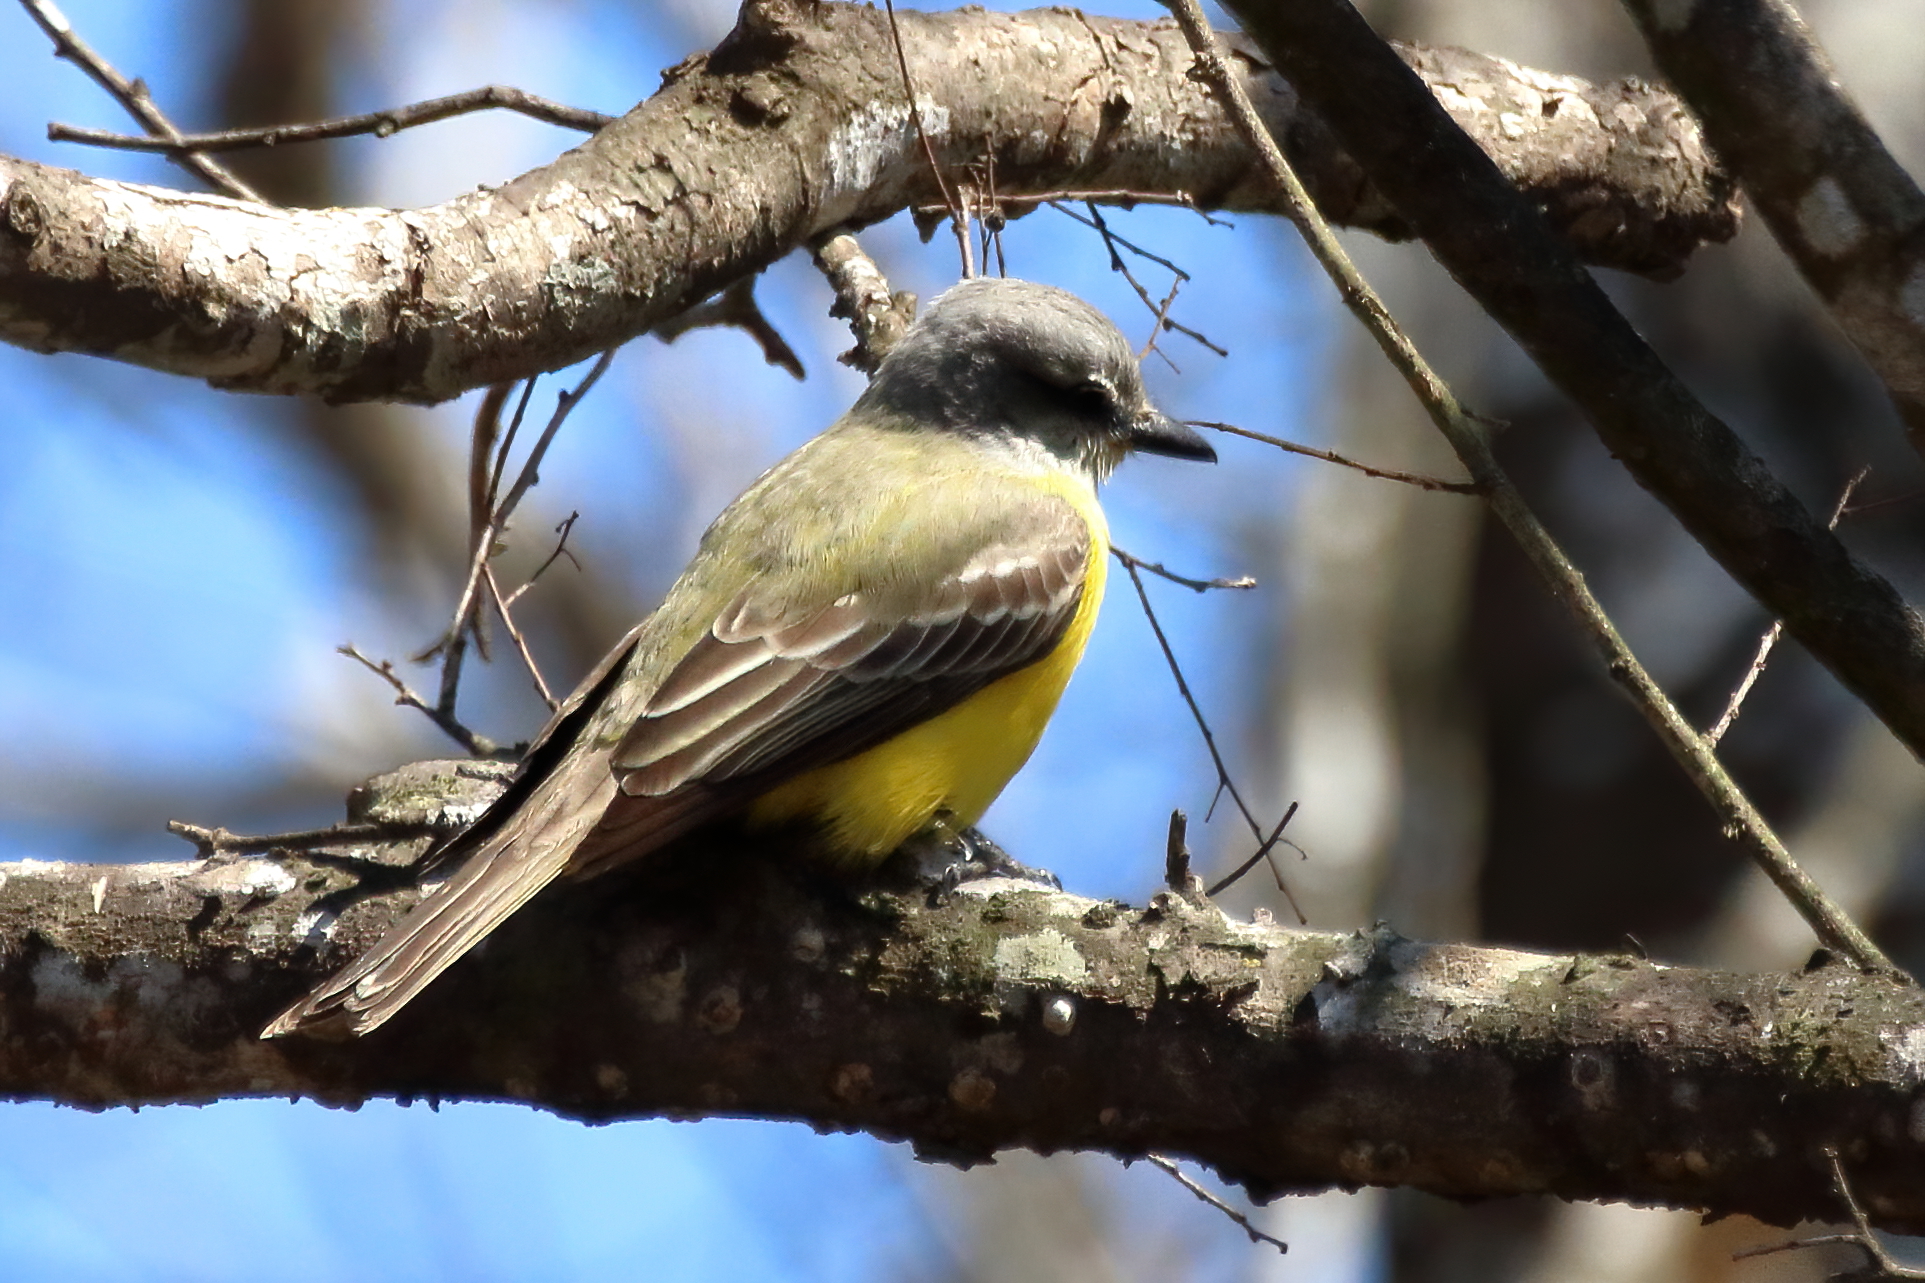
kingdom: Animalia
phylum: Chordata
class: Aves
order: Passeriformes
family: Tyrannidae
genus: Tyrannus
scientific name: Tyrannus
